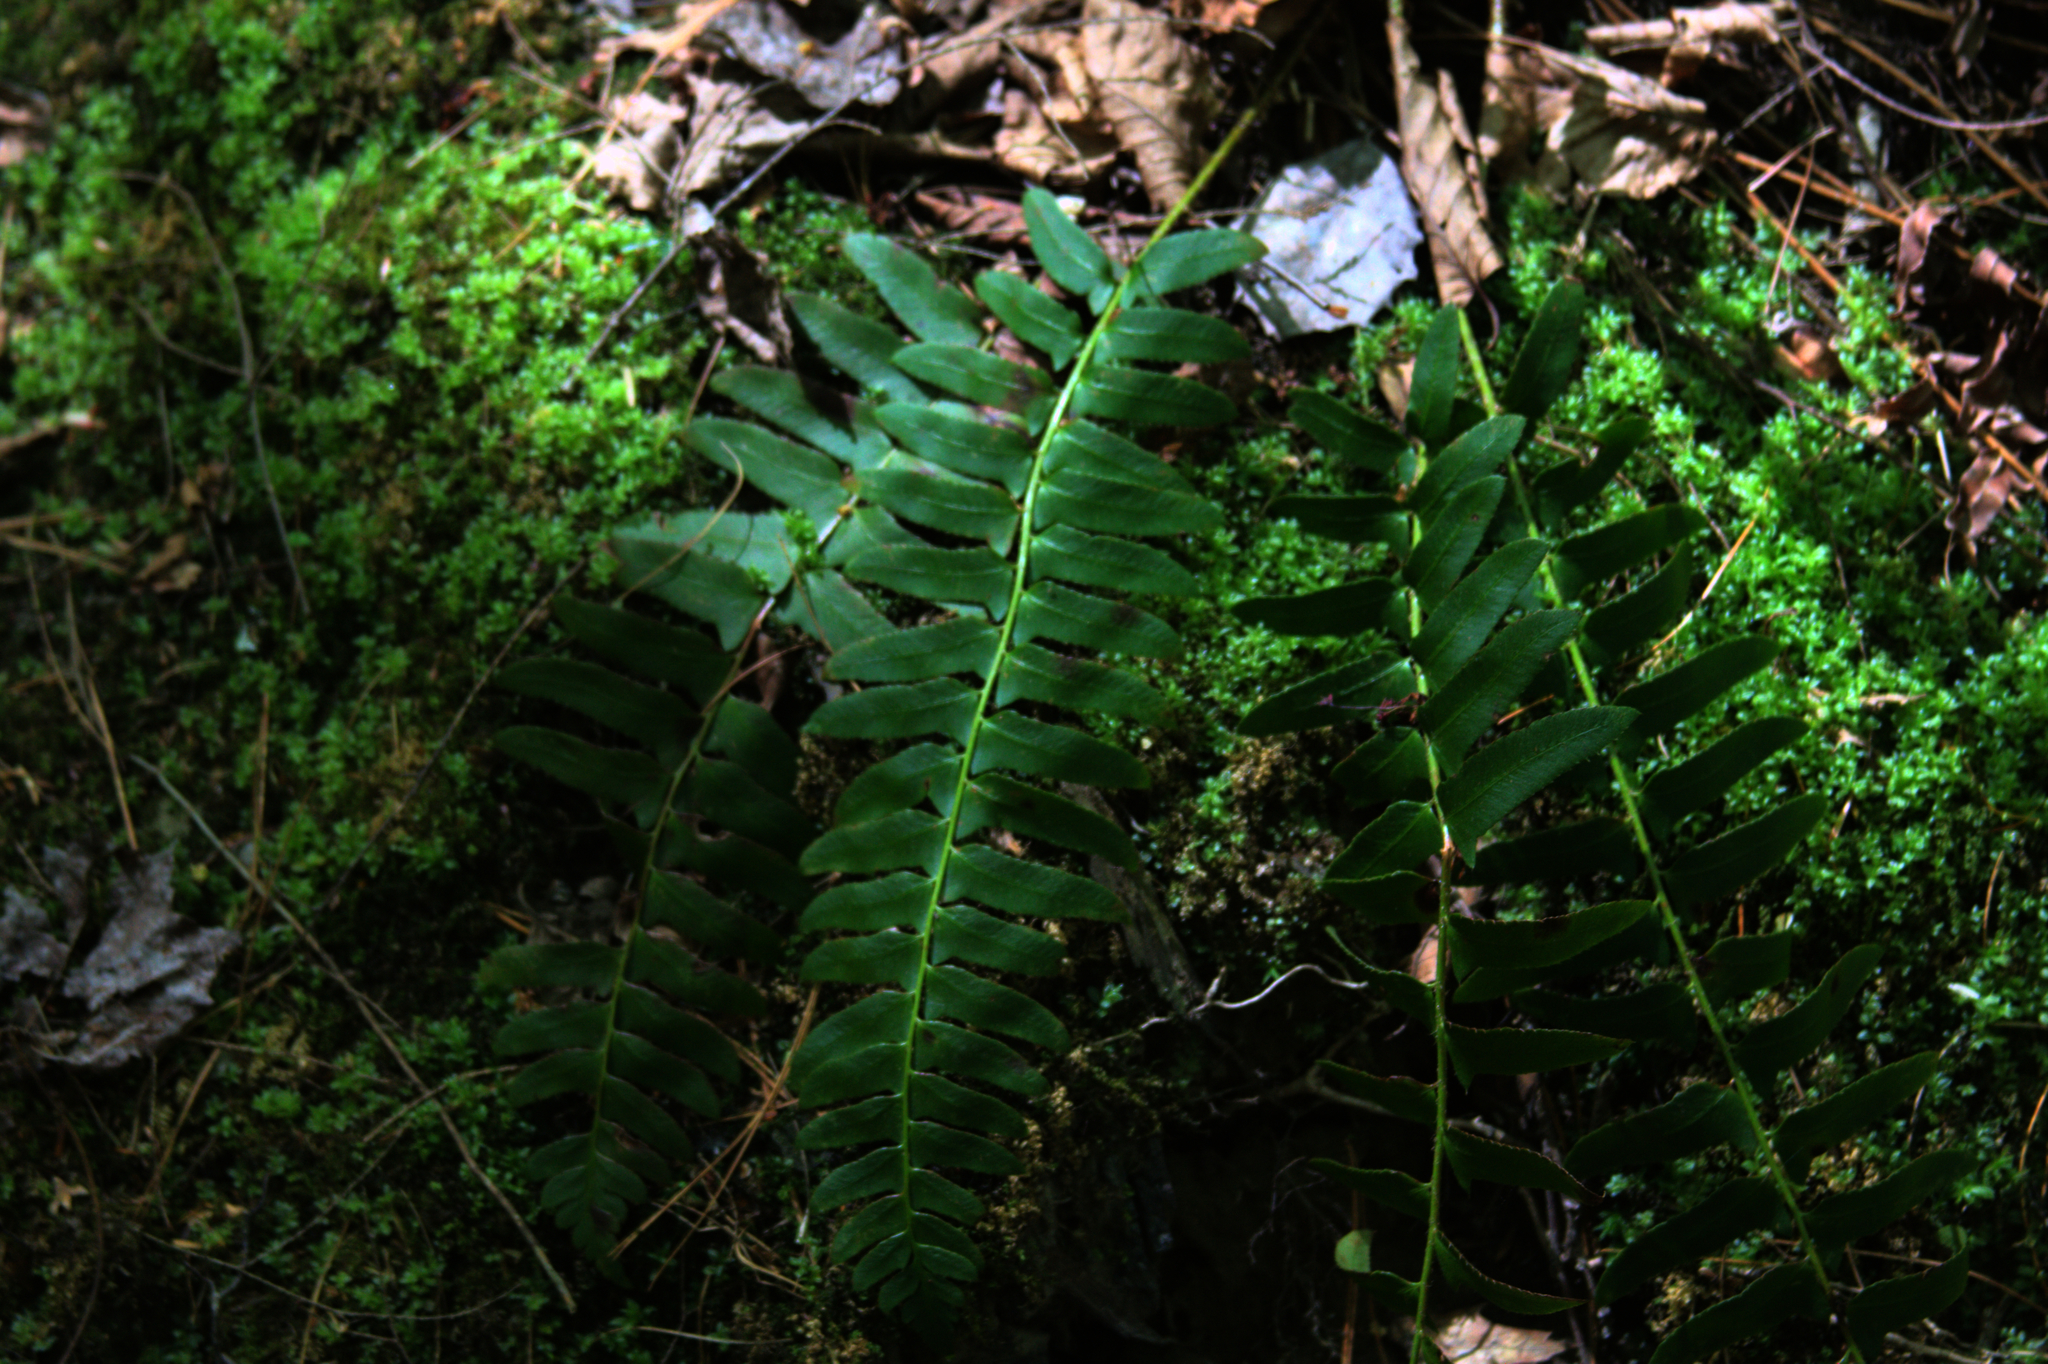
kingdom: Plantae
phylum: Tracheophyta
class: Polypodiopsida
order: Polypodiales
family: Dryopteridaceae
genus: Polystichum
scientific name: Polystichum acrostichoides
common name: Christmas fern
